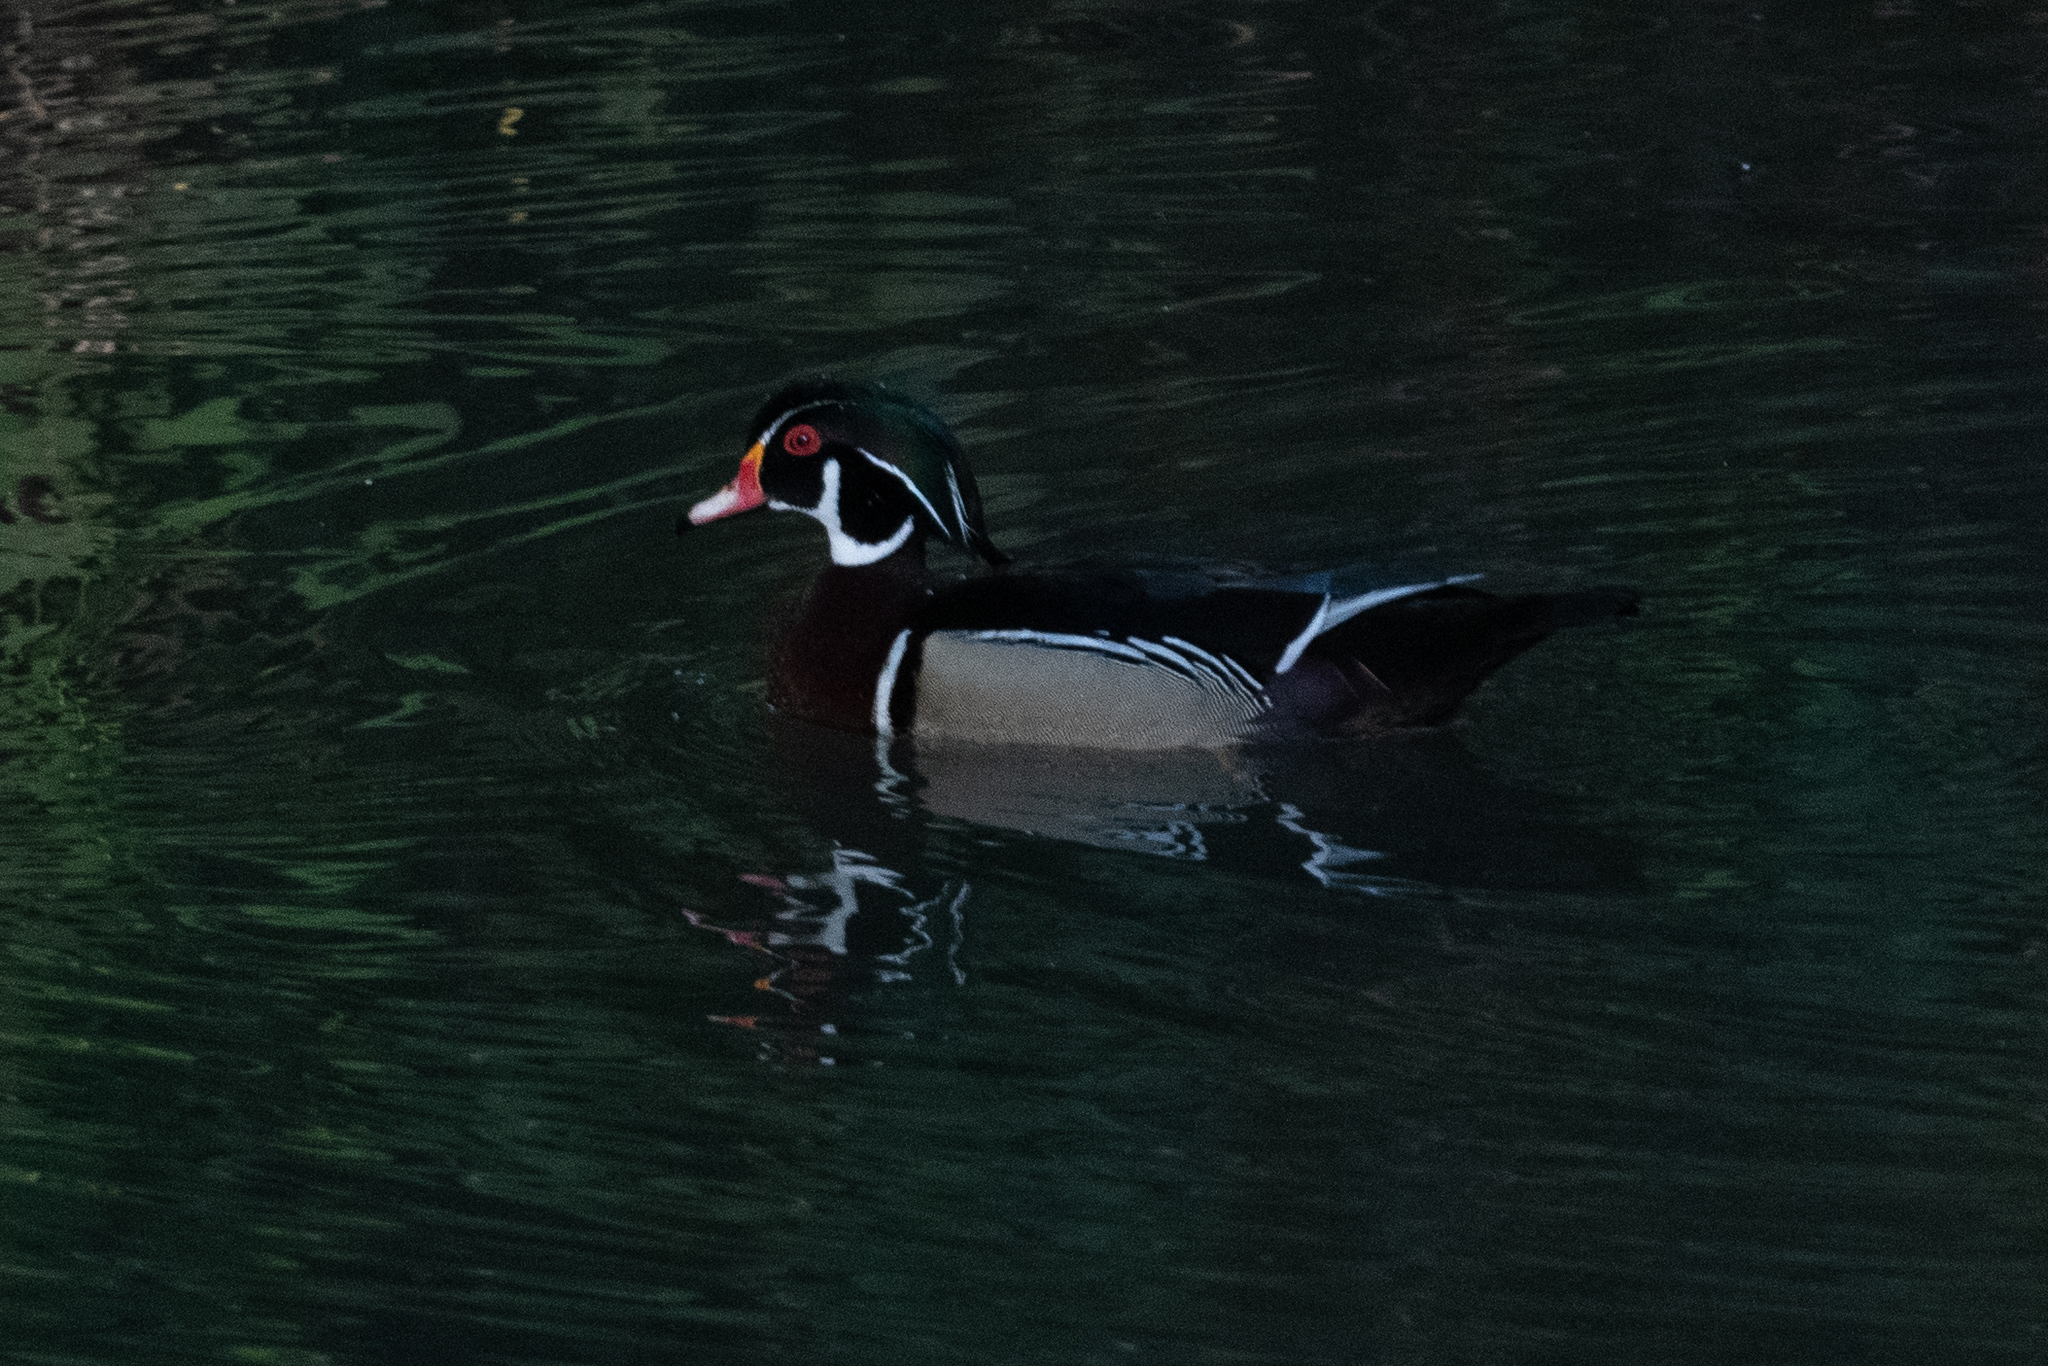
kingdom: Animalia
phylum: Chordata
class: Aves
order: Anseriformes
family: Anatidae
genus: Aix
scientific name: Aix sponsa
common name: Wood duck
